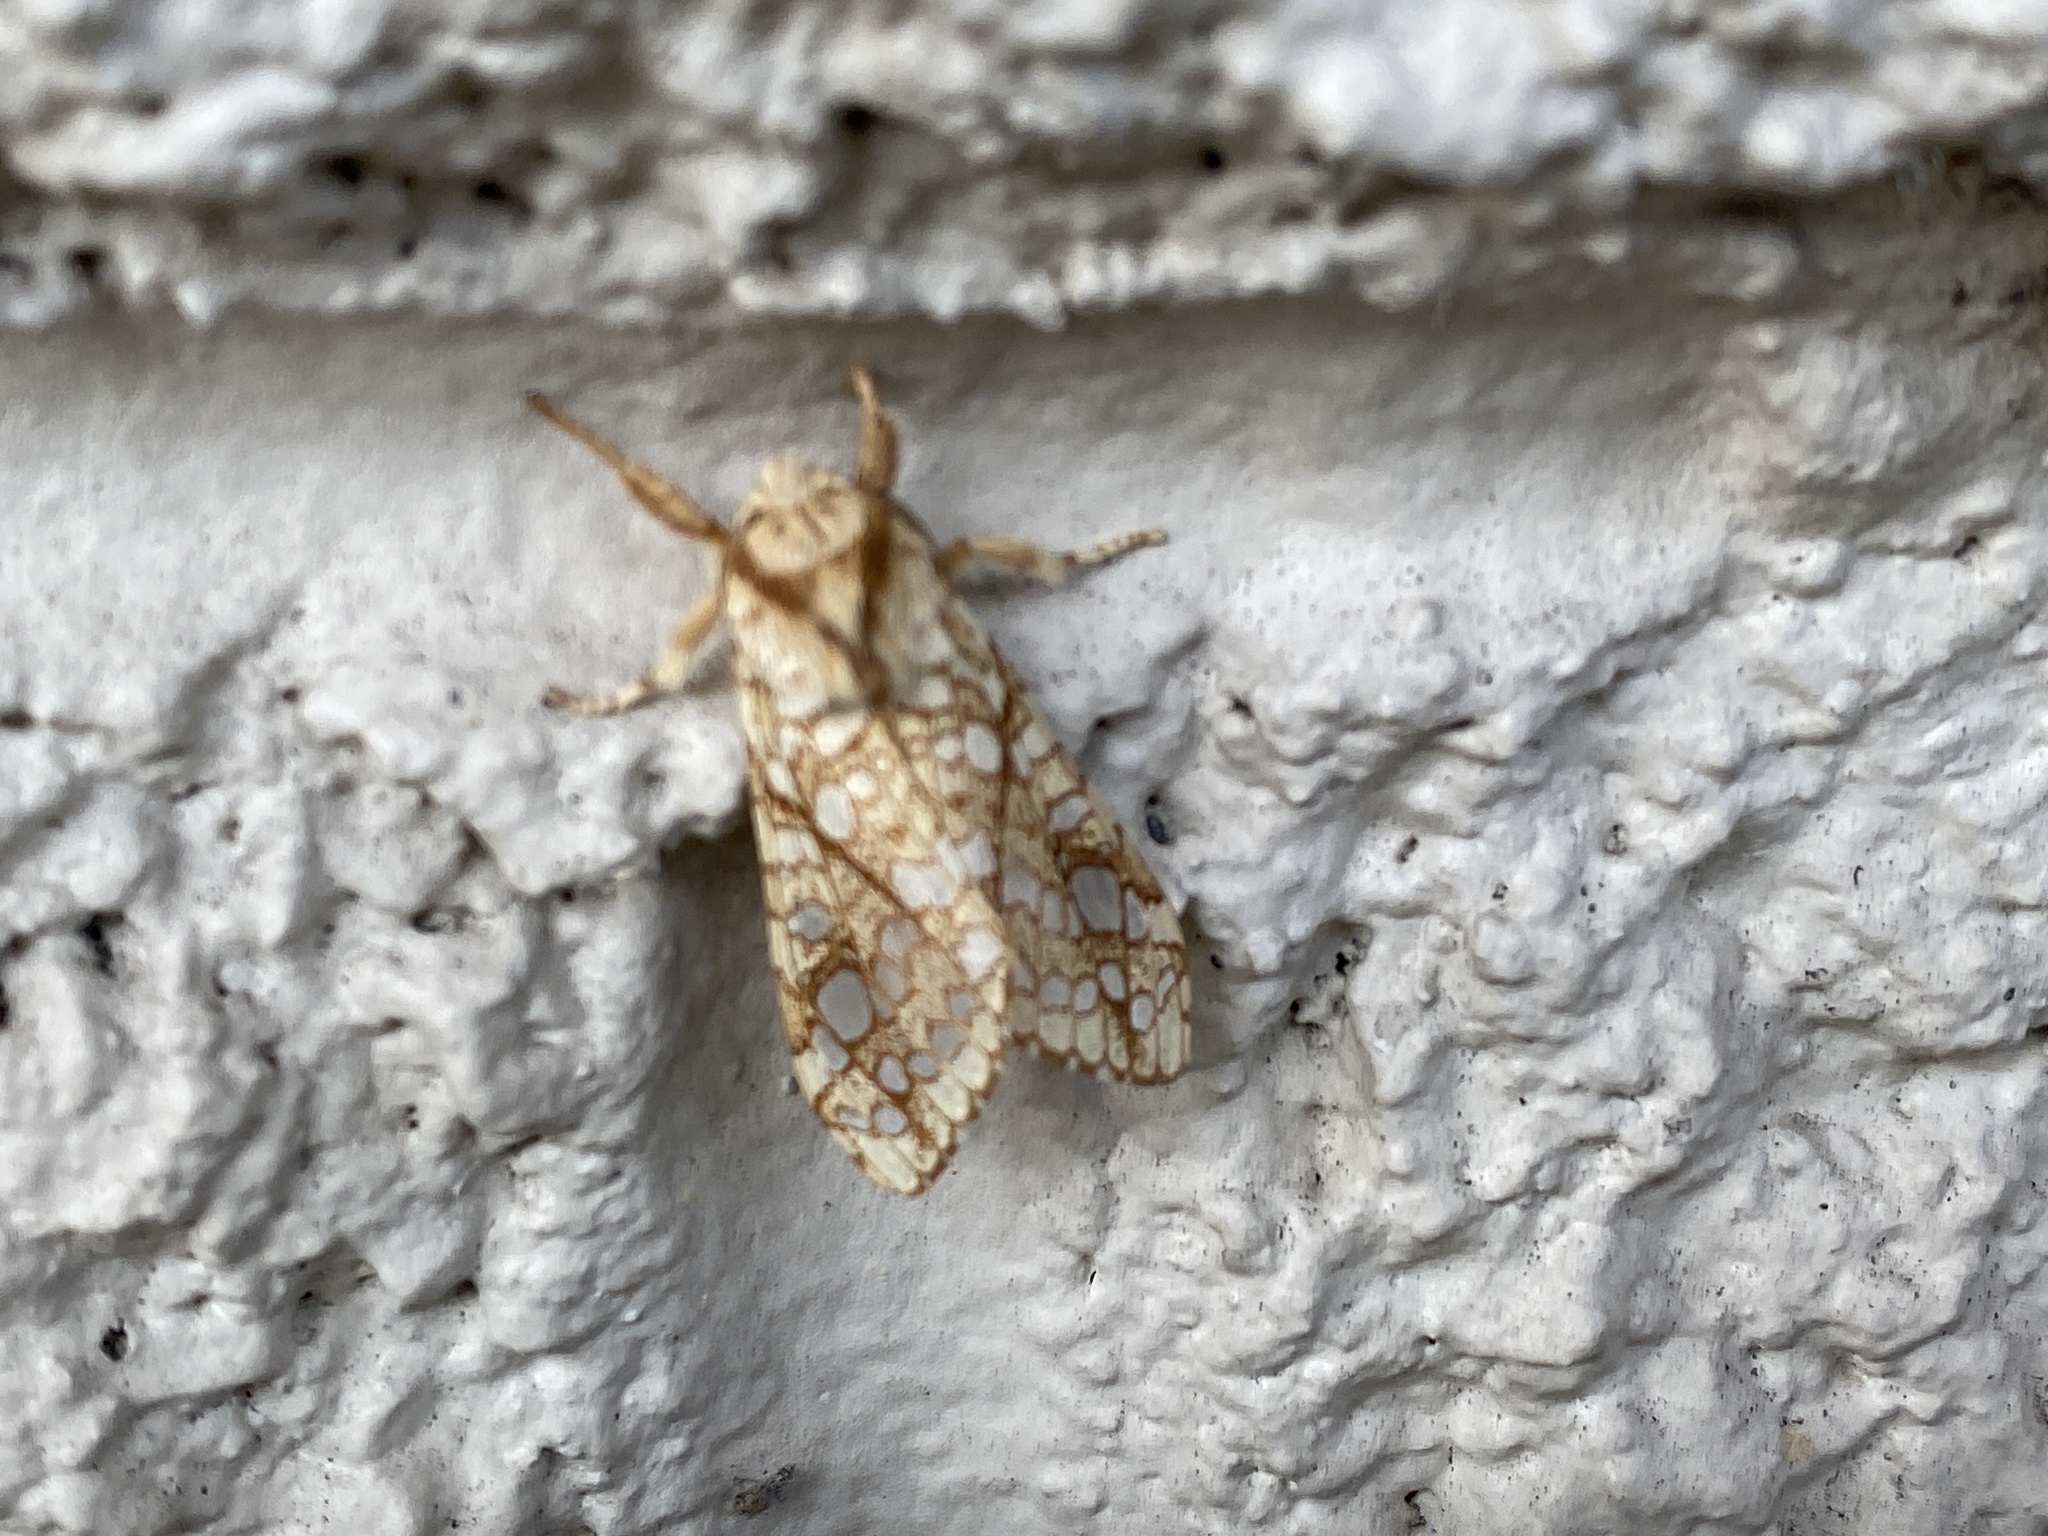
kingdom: Animalia
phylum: Arthropoda
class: Insecta
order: Lepidoptera
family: Erebidae
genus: Lophocampa
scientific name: Lophocampa caryae
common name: Hickory tussock moth
